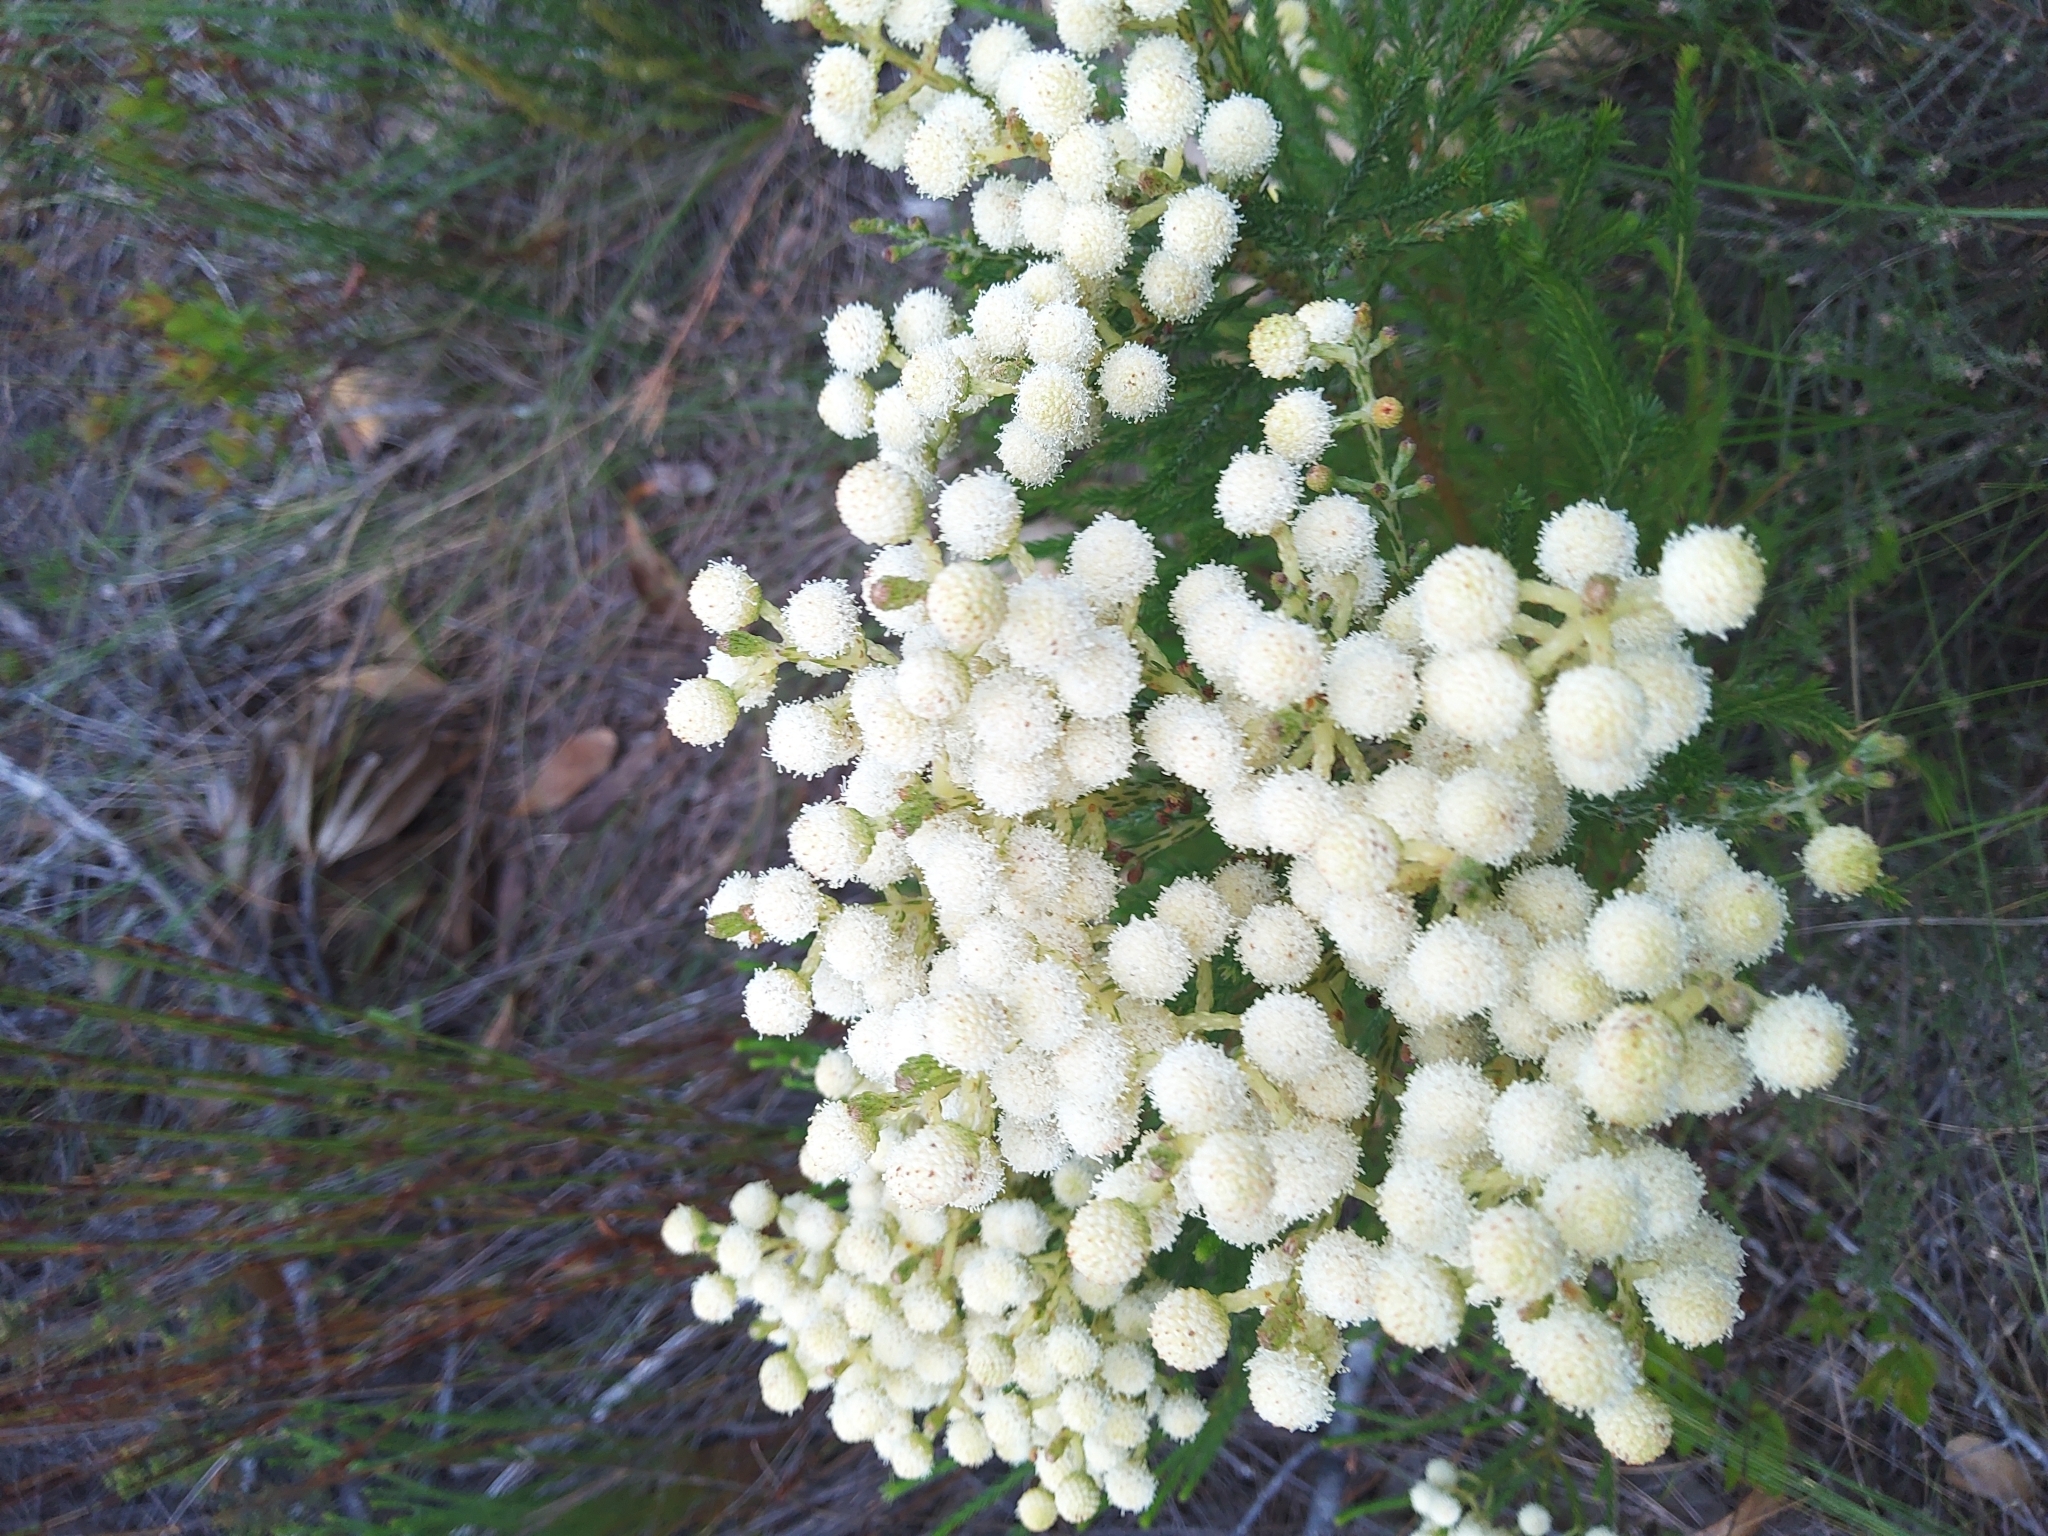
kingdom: Plantae
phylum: Tracheophyta
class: Magnoliopsida
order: Bruniales
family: Bruniaceae
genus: Berzelia
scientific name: Berzelia lanuginosa
